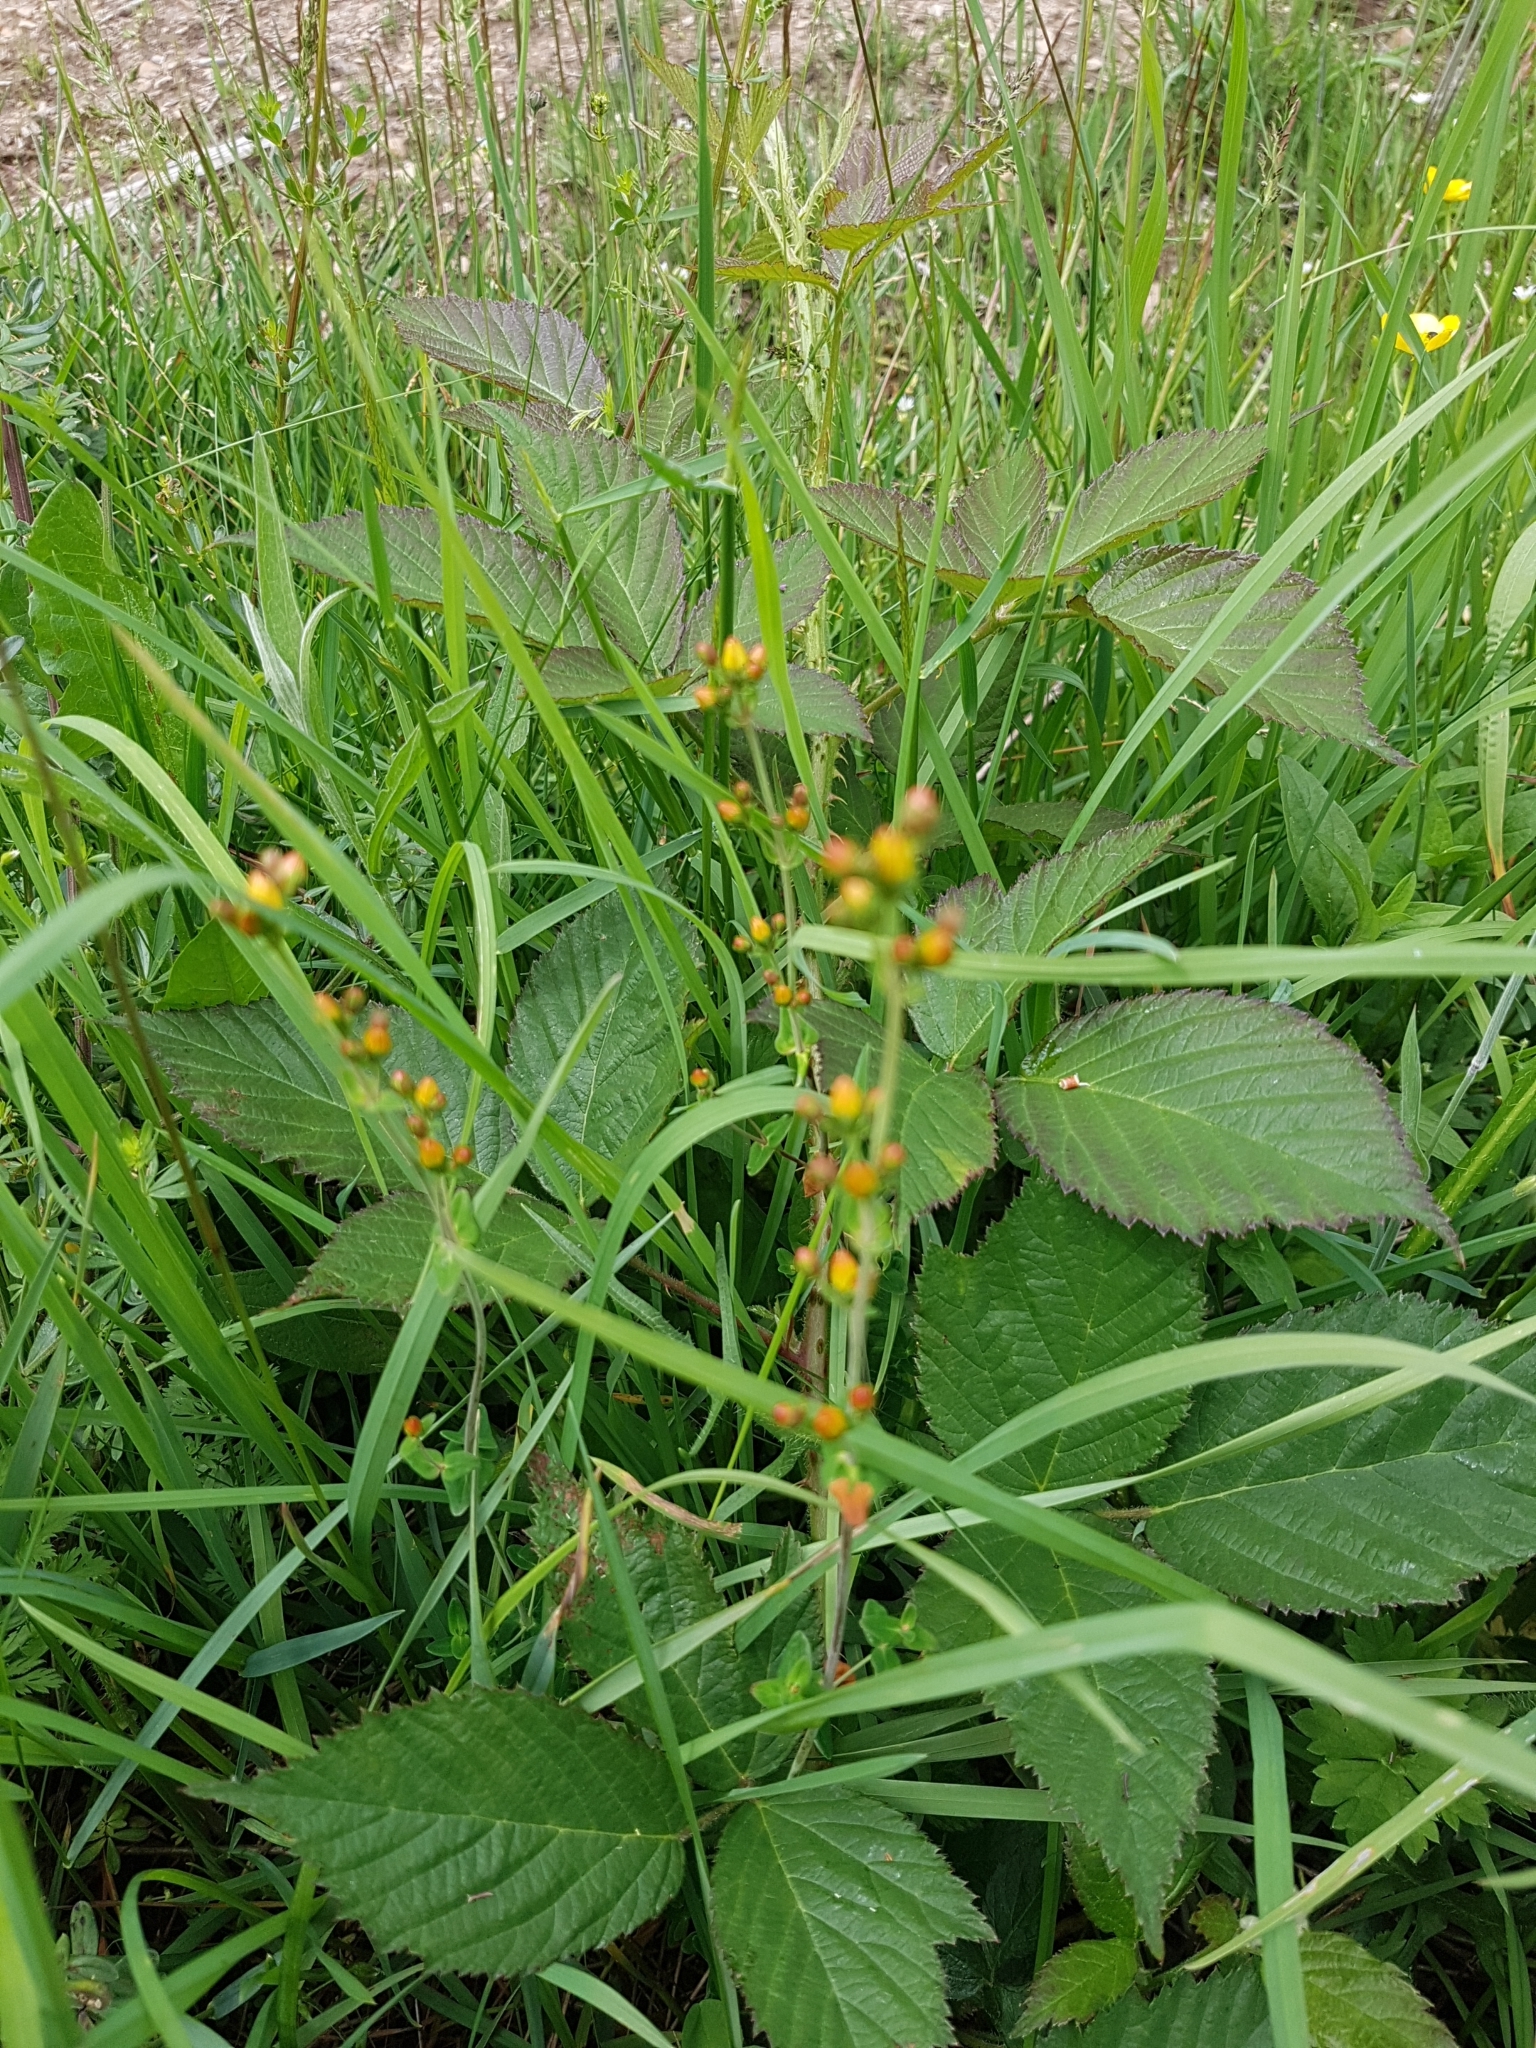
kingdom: Plantae
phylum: Tracheophyta
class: Magnoliopsida
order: Malpighiales
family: Hypericaceae
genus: Hypericum
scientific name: Hypericum pulchrum
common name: Slender st. john's-wort
